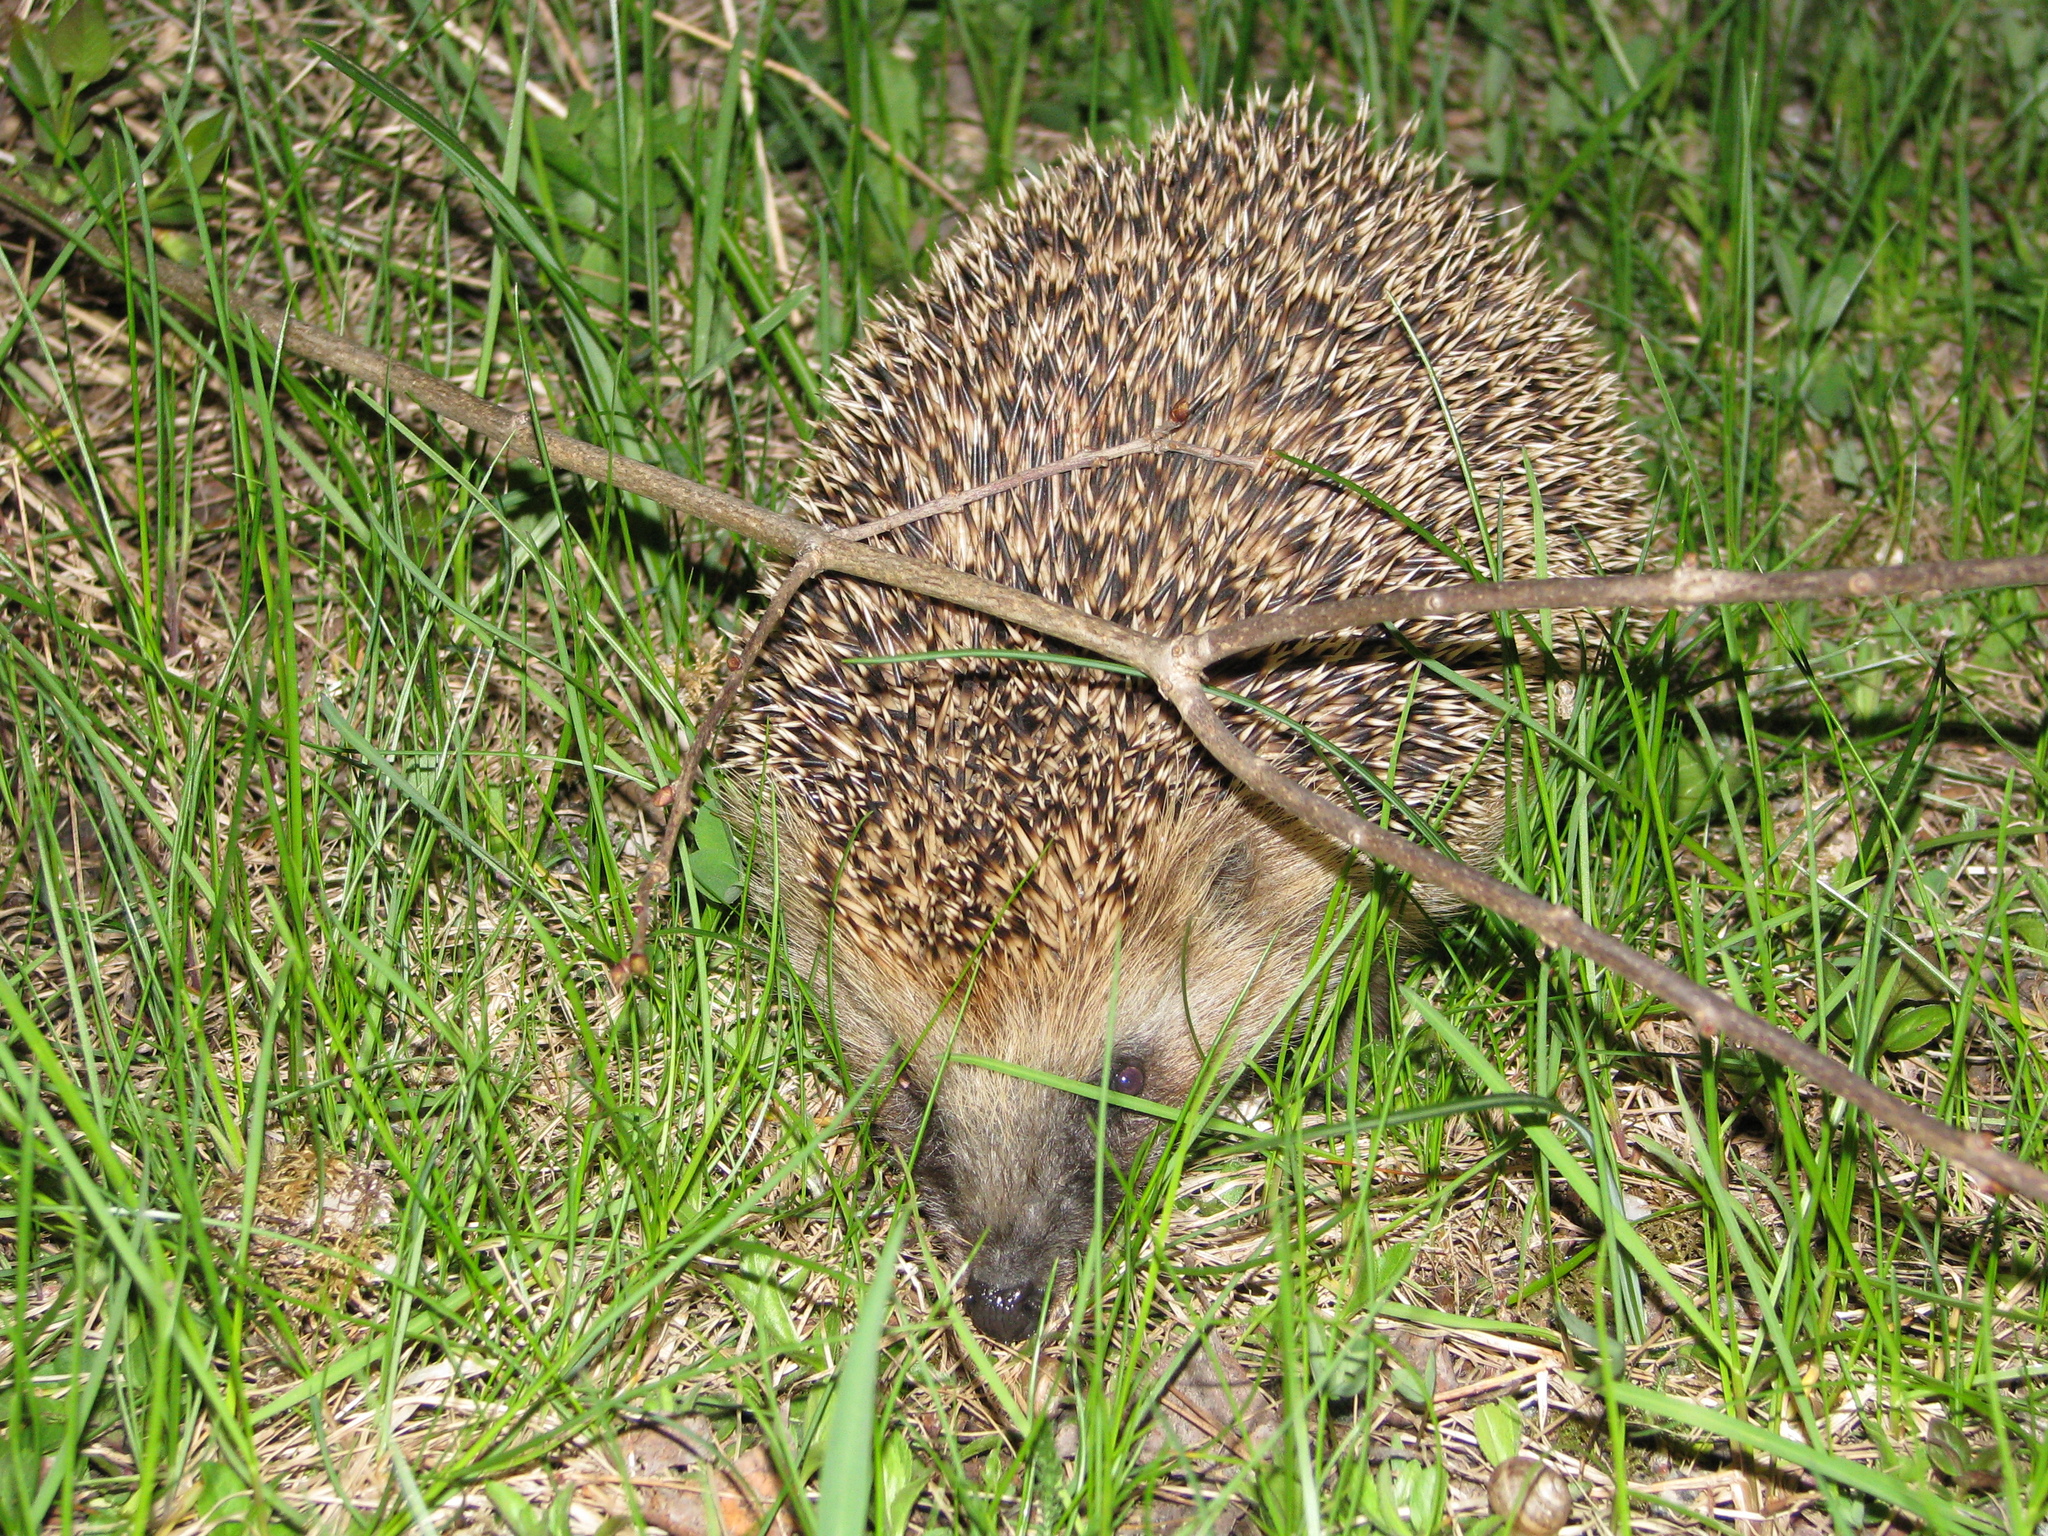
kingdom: Animalia
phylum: Chordata
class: Mammalia
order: Erinaceomorpha
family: Erinaceidae
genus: Erinaceus
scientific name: Erinaceus europaeus
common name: West european hedgehog
